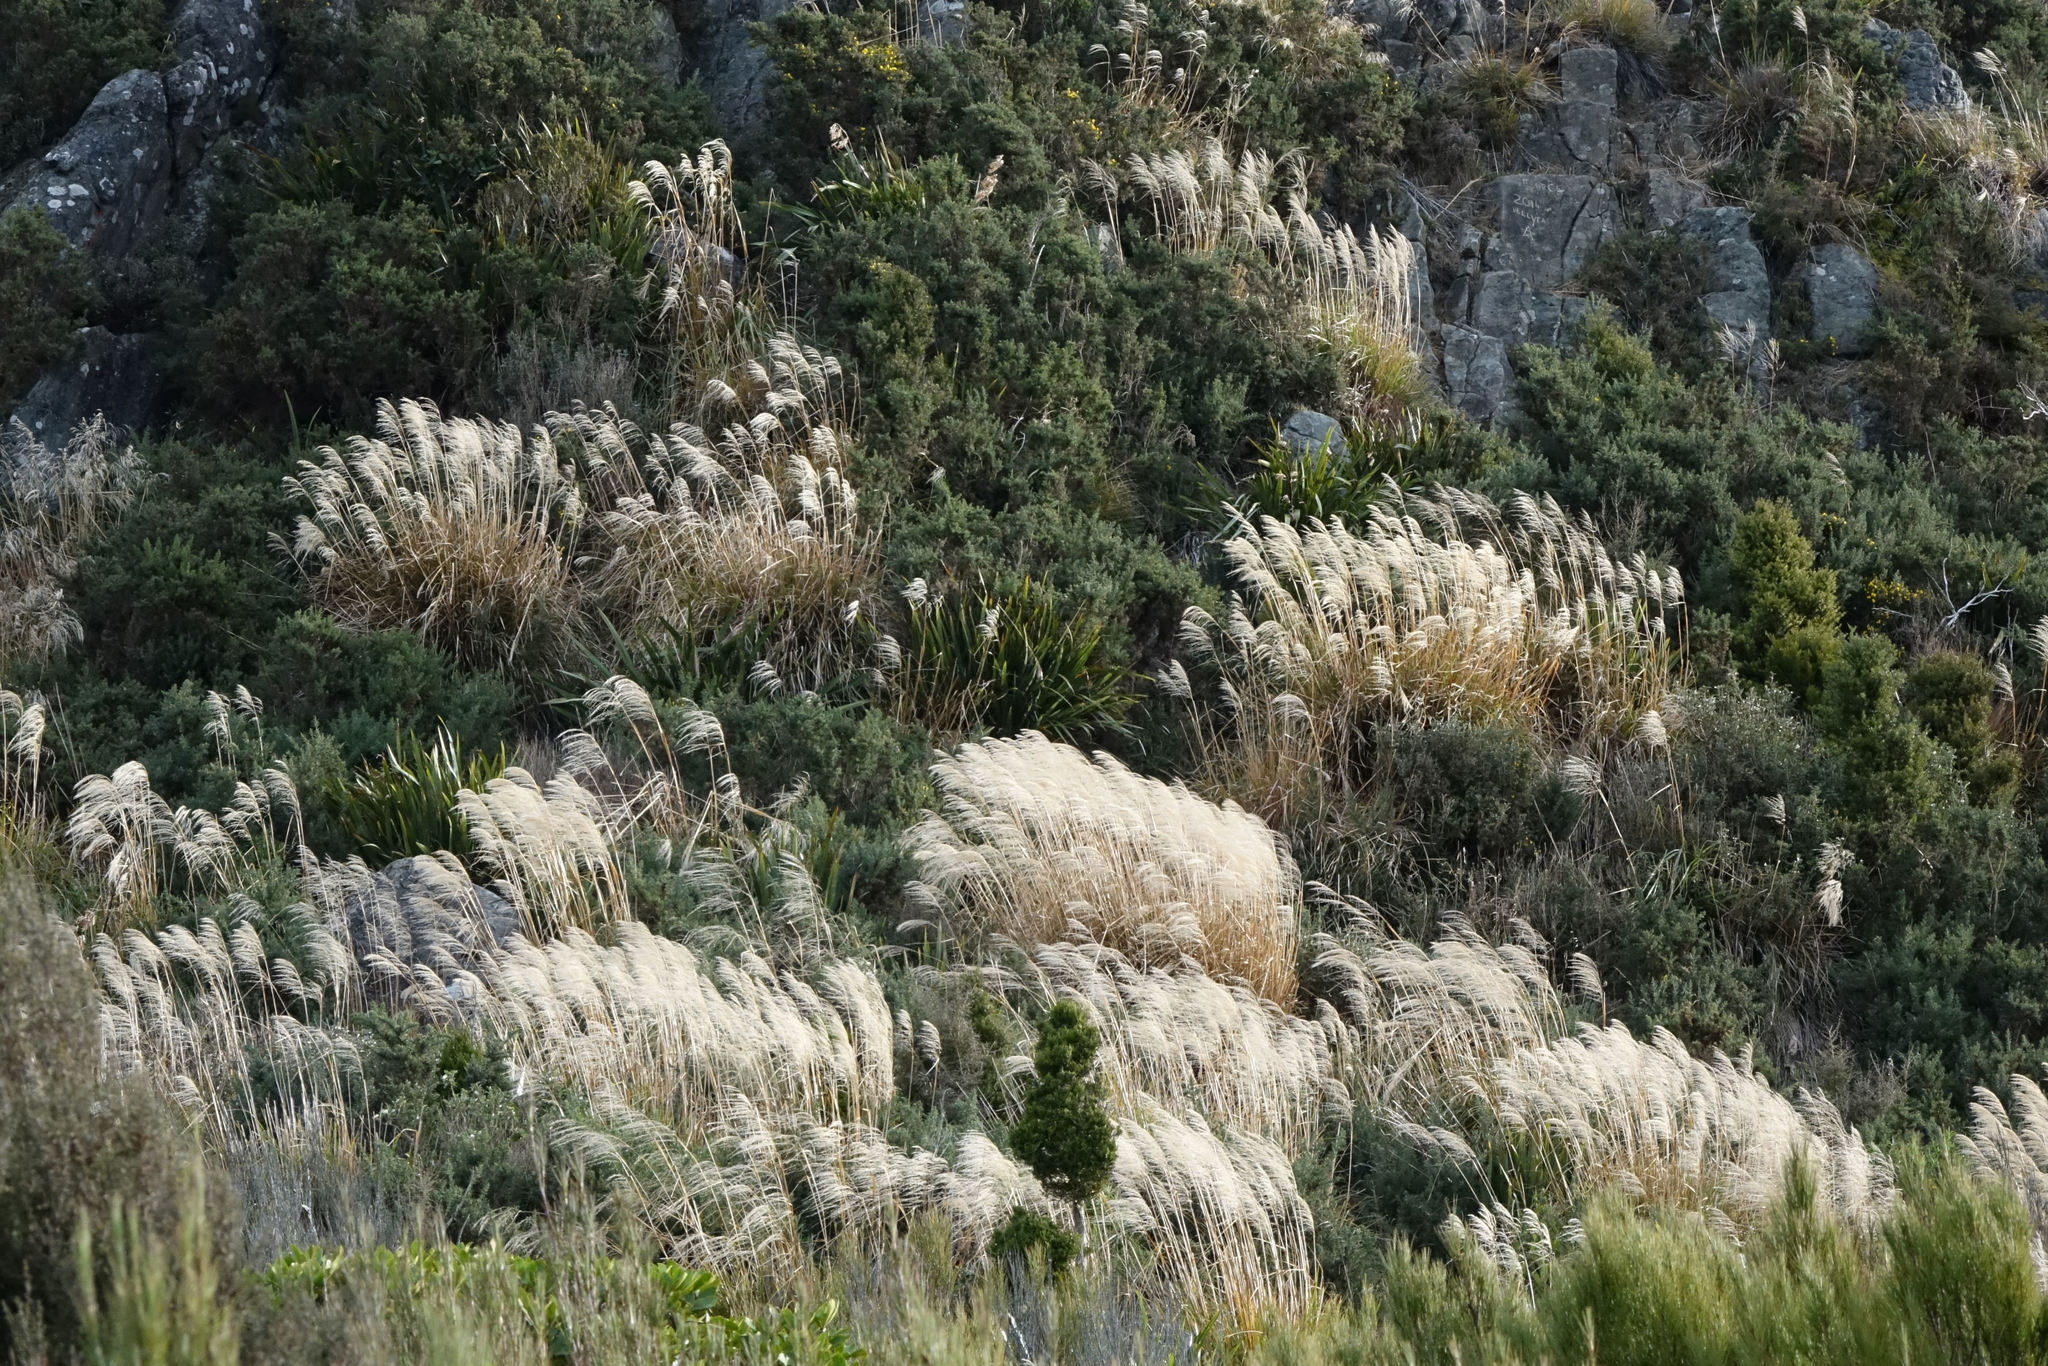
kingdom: Plantae
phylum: Tracheophyta
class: Liliopsida
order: Poales
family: Poaceae
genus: Chionochloa
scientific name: Chionochloa conspicua
